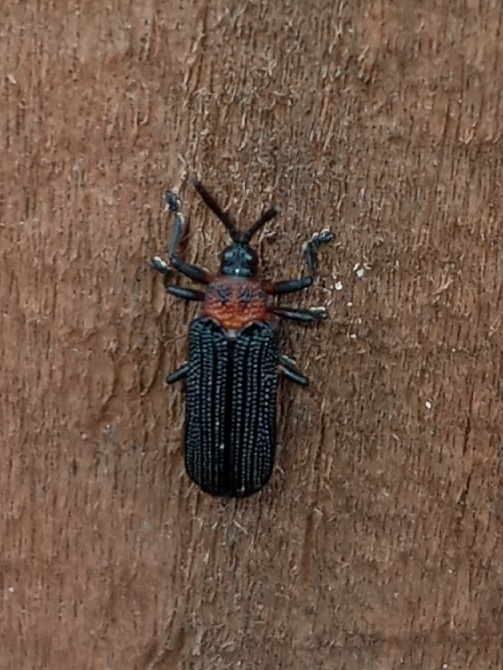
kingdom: Animalia
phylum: Arthropoda
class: Insecta
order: Coleoptera
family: Chrysomelidae
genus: Chalepus
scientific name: Chalepus bicolor
